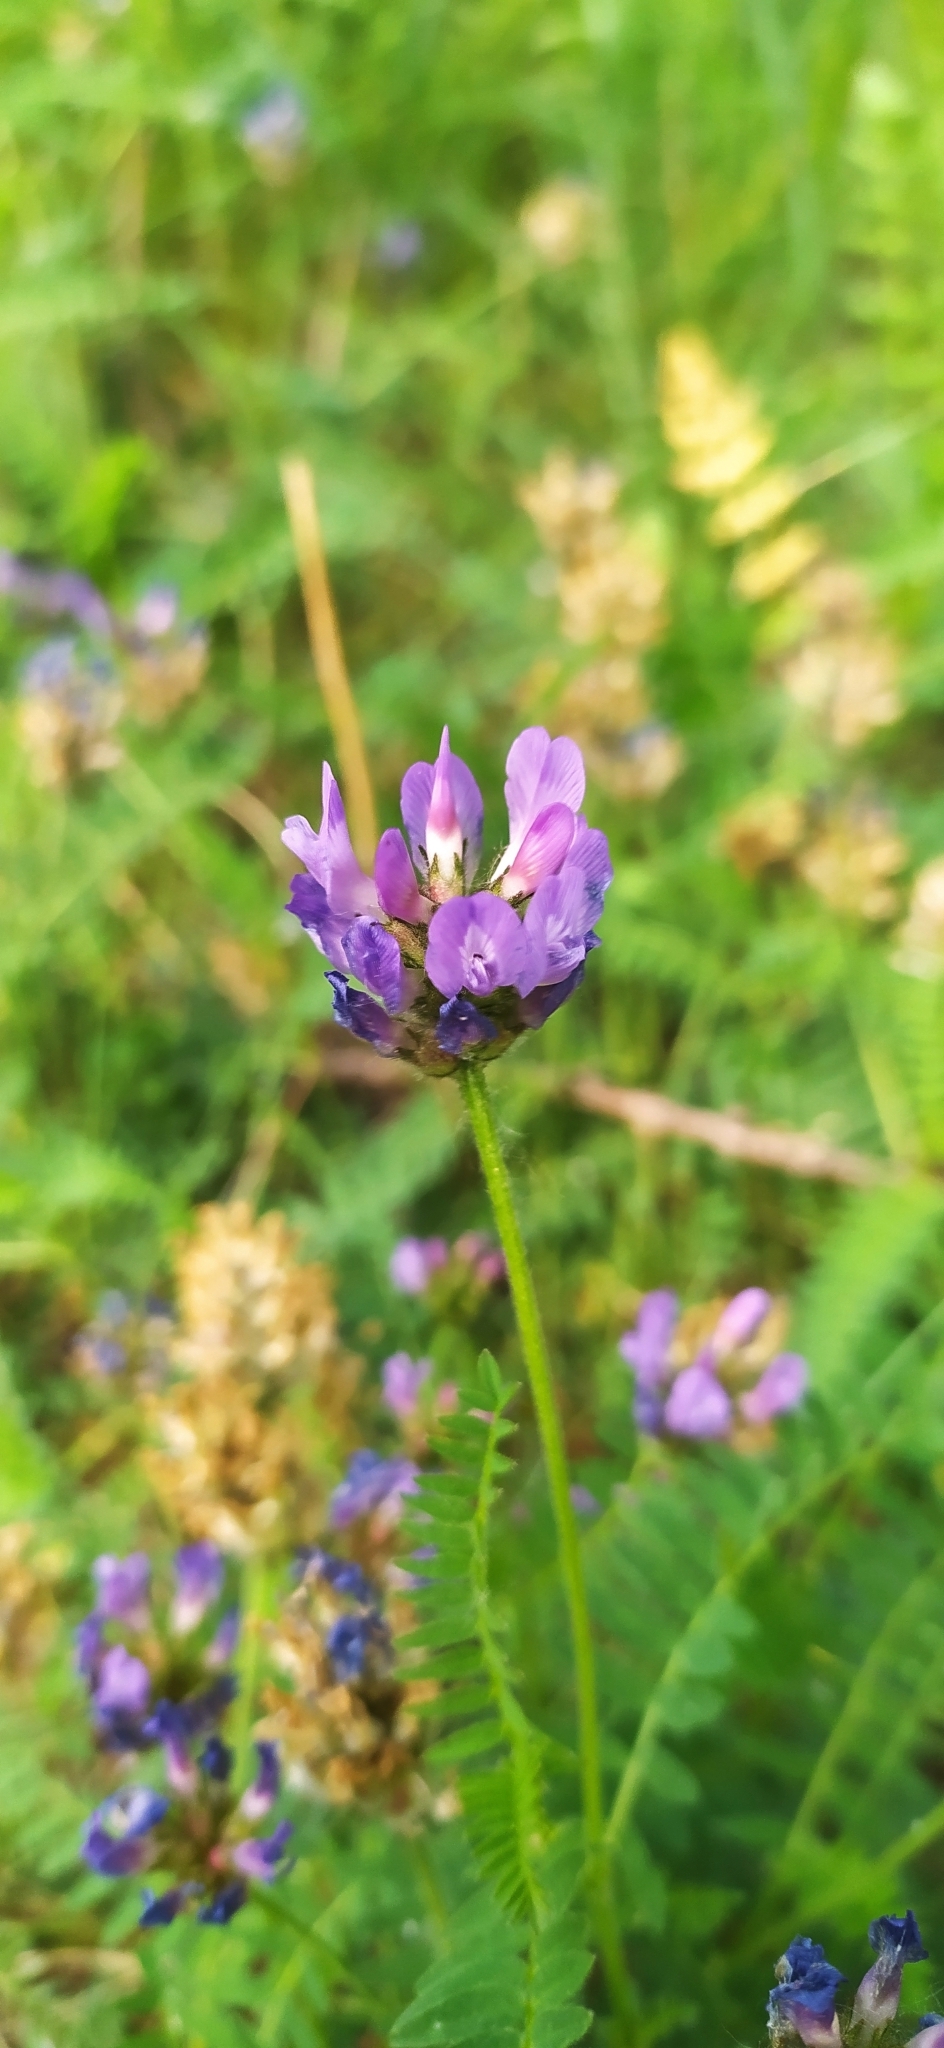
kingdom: Plantae
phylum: Tracheophyta
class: Magnoliopsida
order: Fabales
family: Fabaceae
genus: Astragalus
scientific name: Astragalus danicus
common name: Purple milk-vetch
